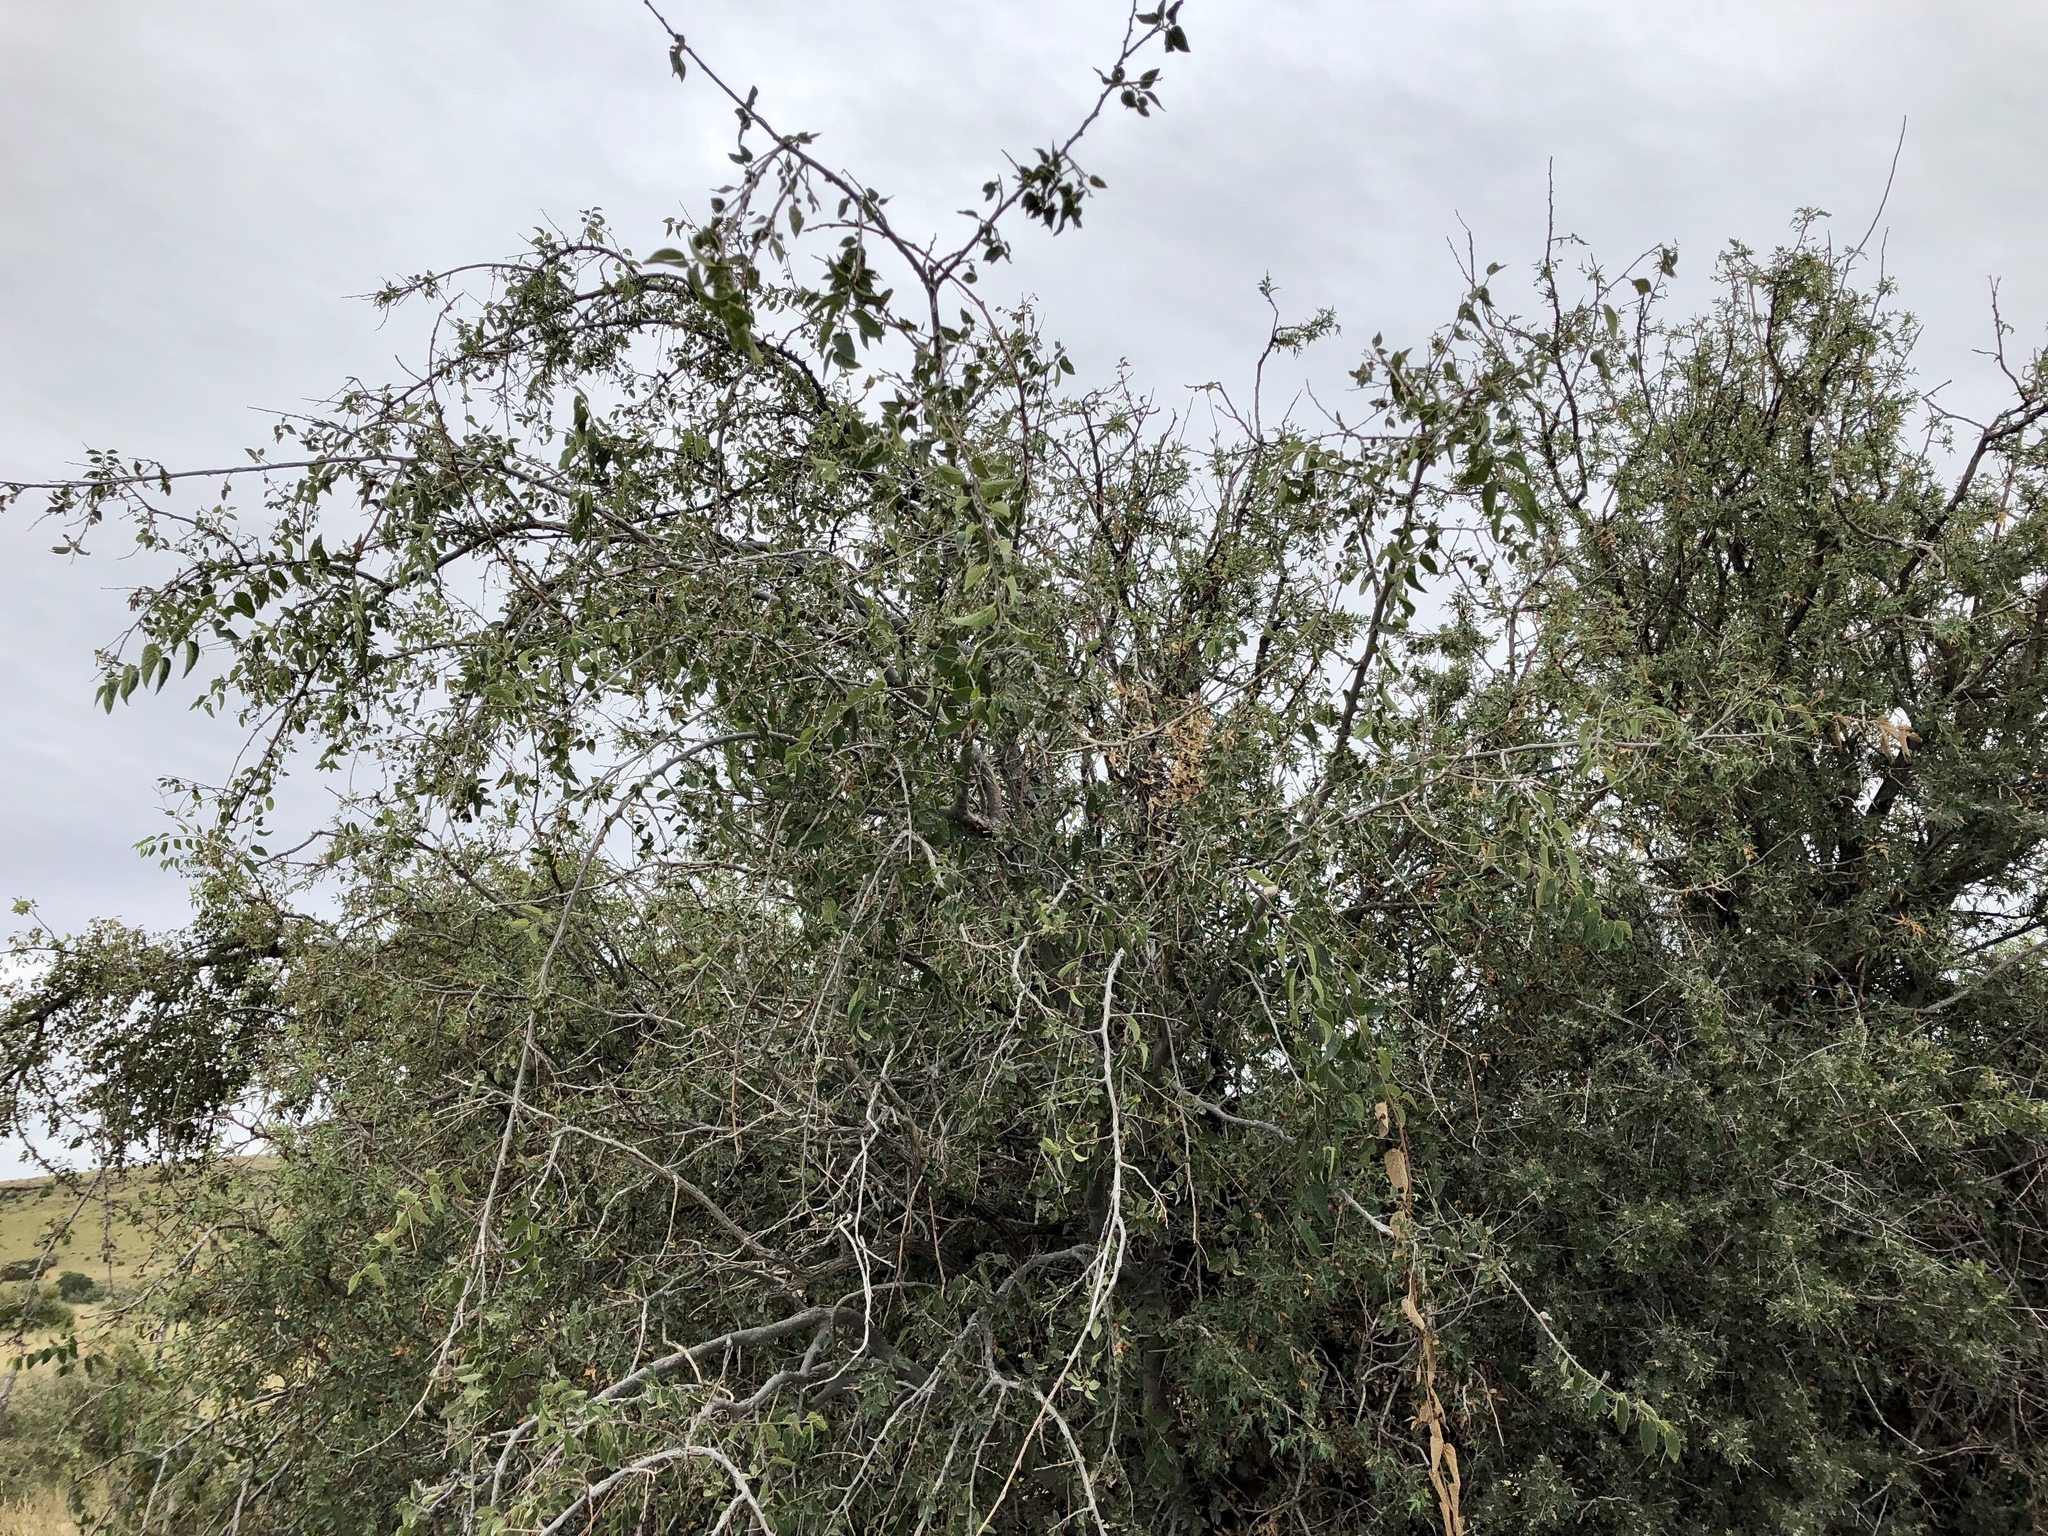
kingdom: Plantae
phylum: Tracheophyta
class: Magnoliopsida
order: Rosales
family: Cannabaceae
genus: Celtis
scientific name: Celtis reticulata
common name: Netleaf hackberry
